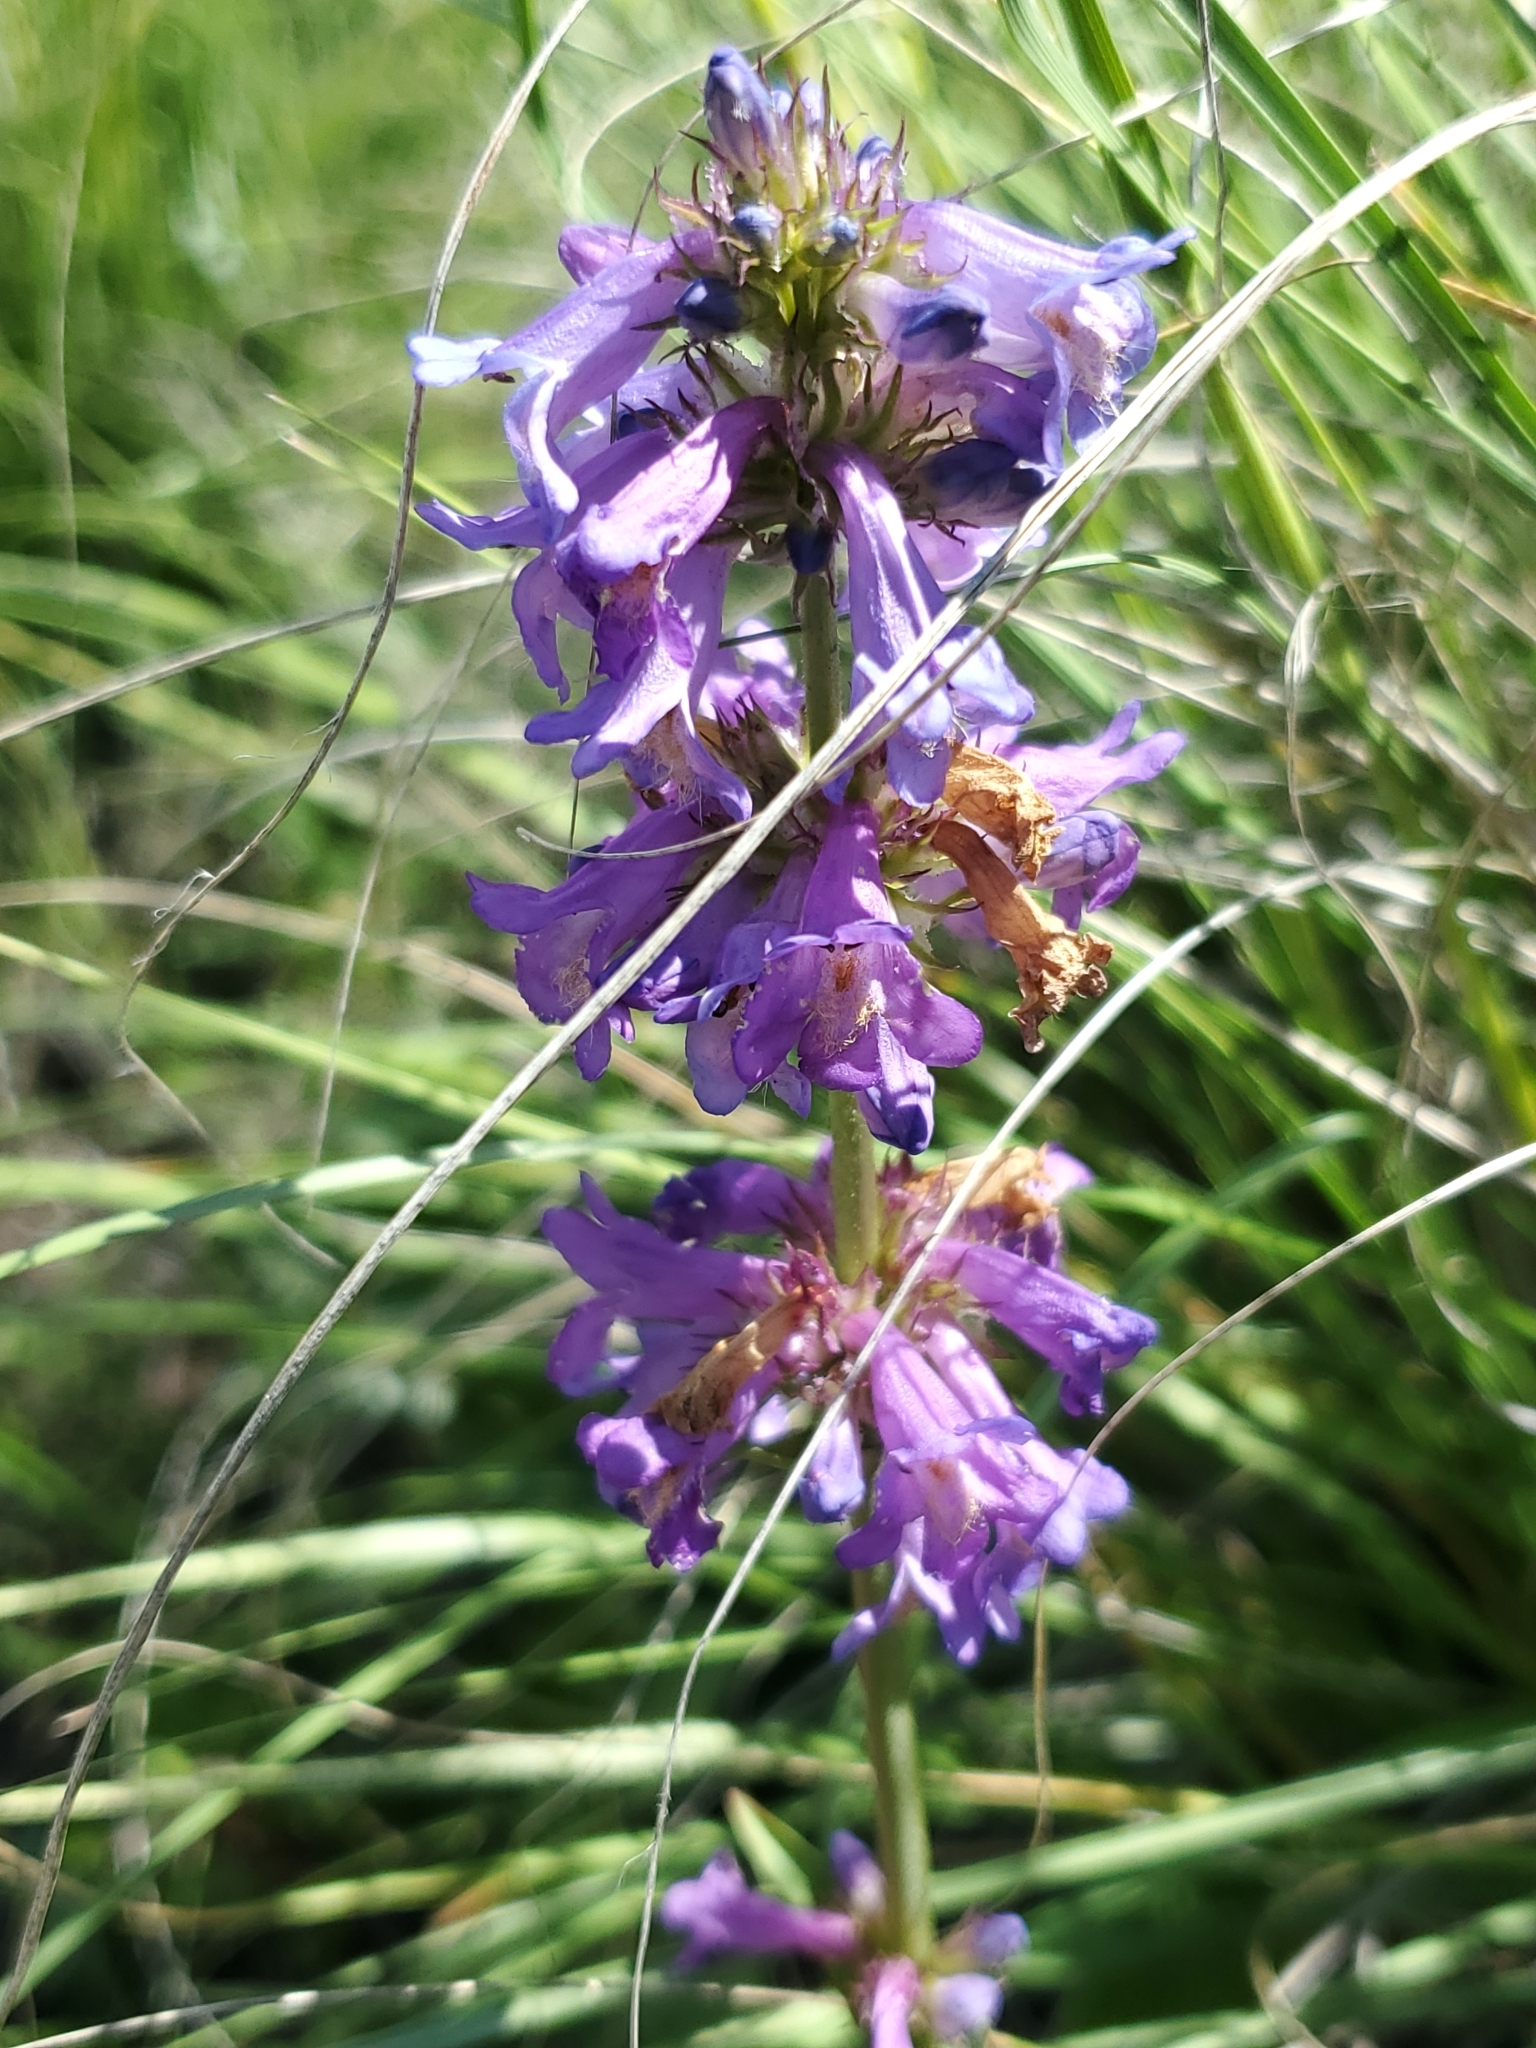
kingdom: Plantae
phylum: Tracheophyta
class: Magnoliopsida
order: Lamiales
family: Plantaginaceae
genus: Penstemon
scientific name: Penstemon rydbergii
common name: Rydberg's beardtongue
